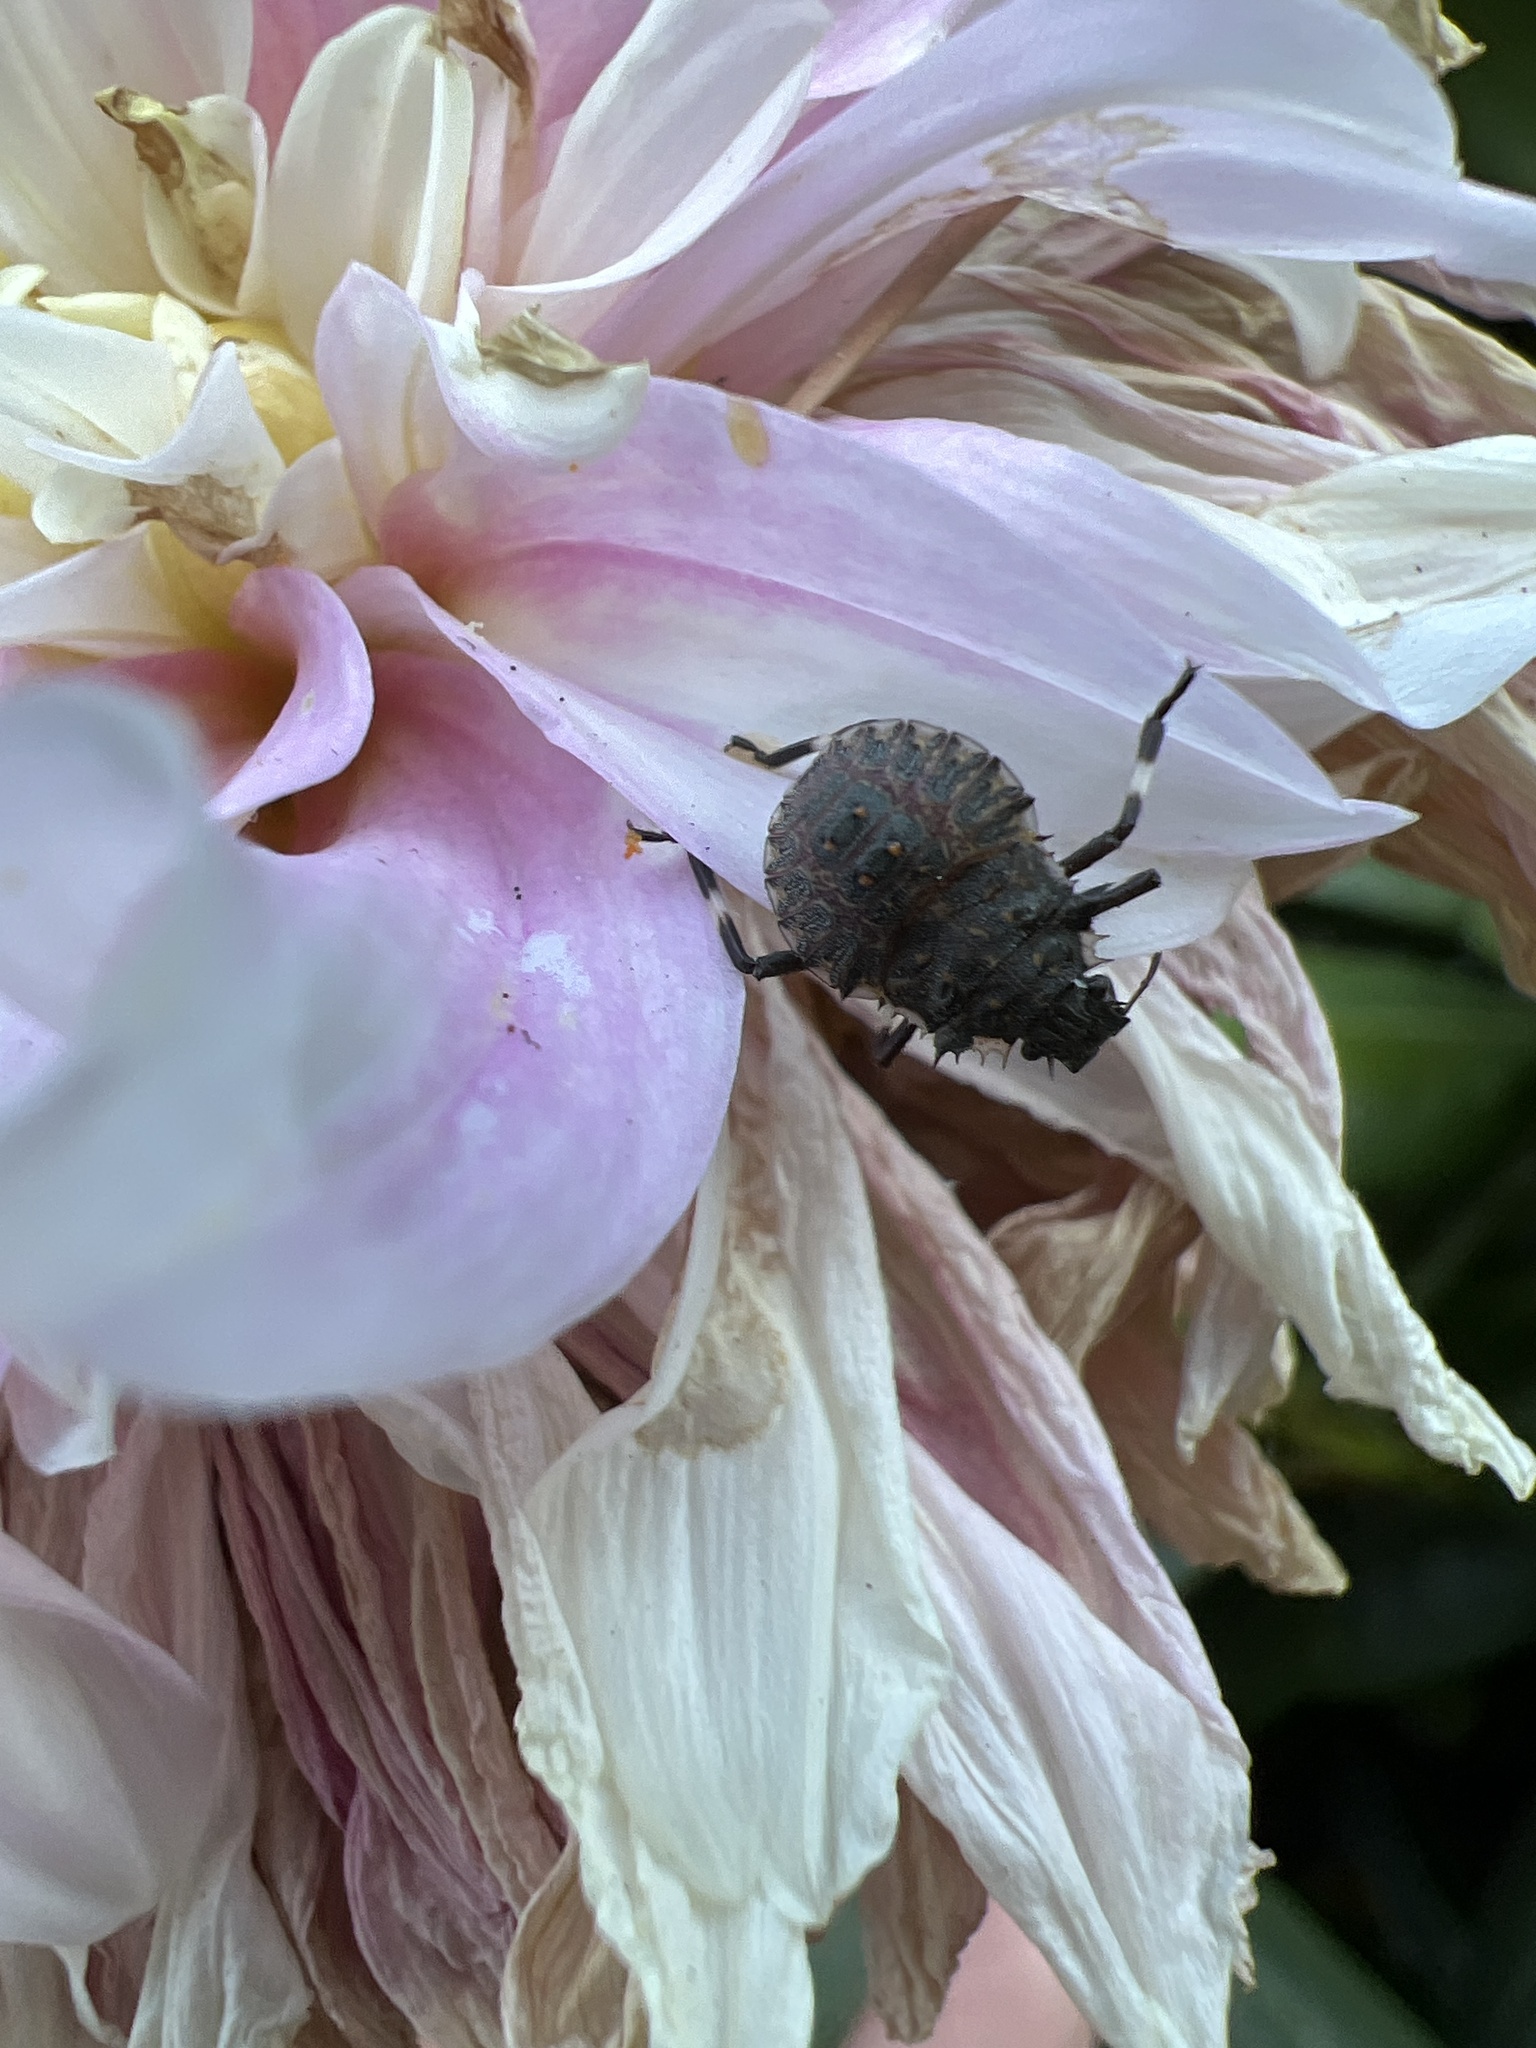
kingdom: Animalia
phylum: Arthropoda
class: Insecta
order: Hemiptera
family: Pentatomidae
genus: Halyomorpha
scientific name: Halyomorpha halys
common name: Brown marmorated stink bug
